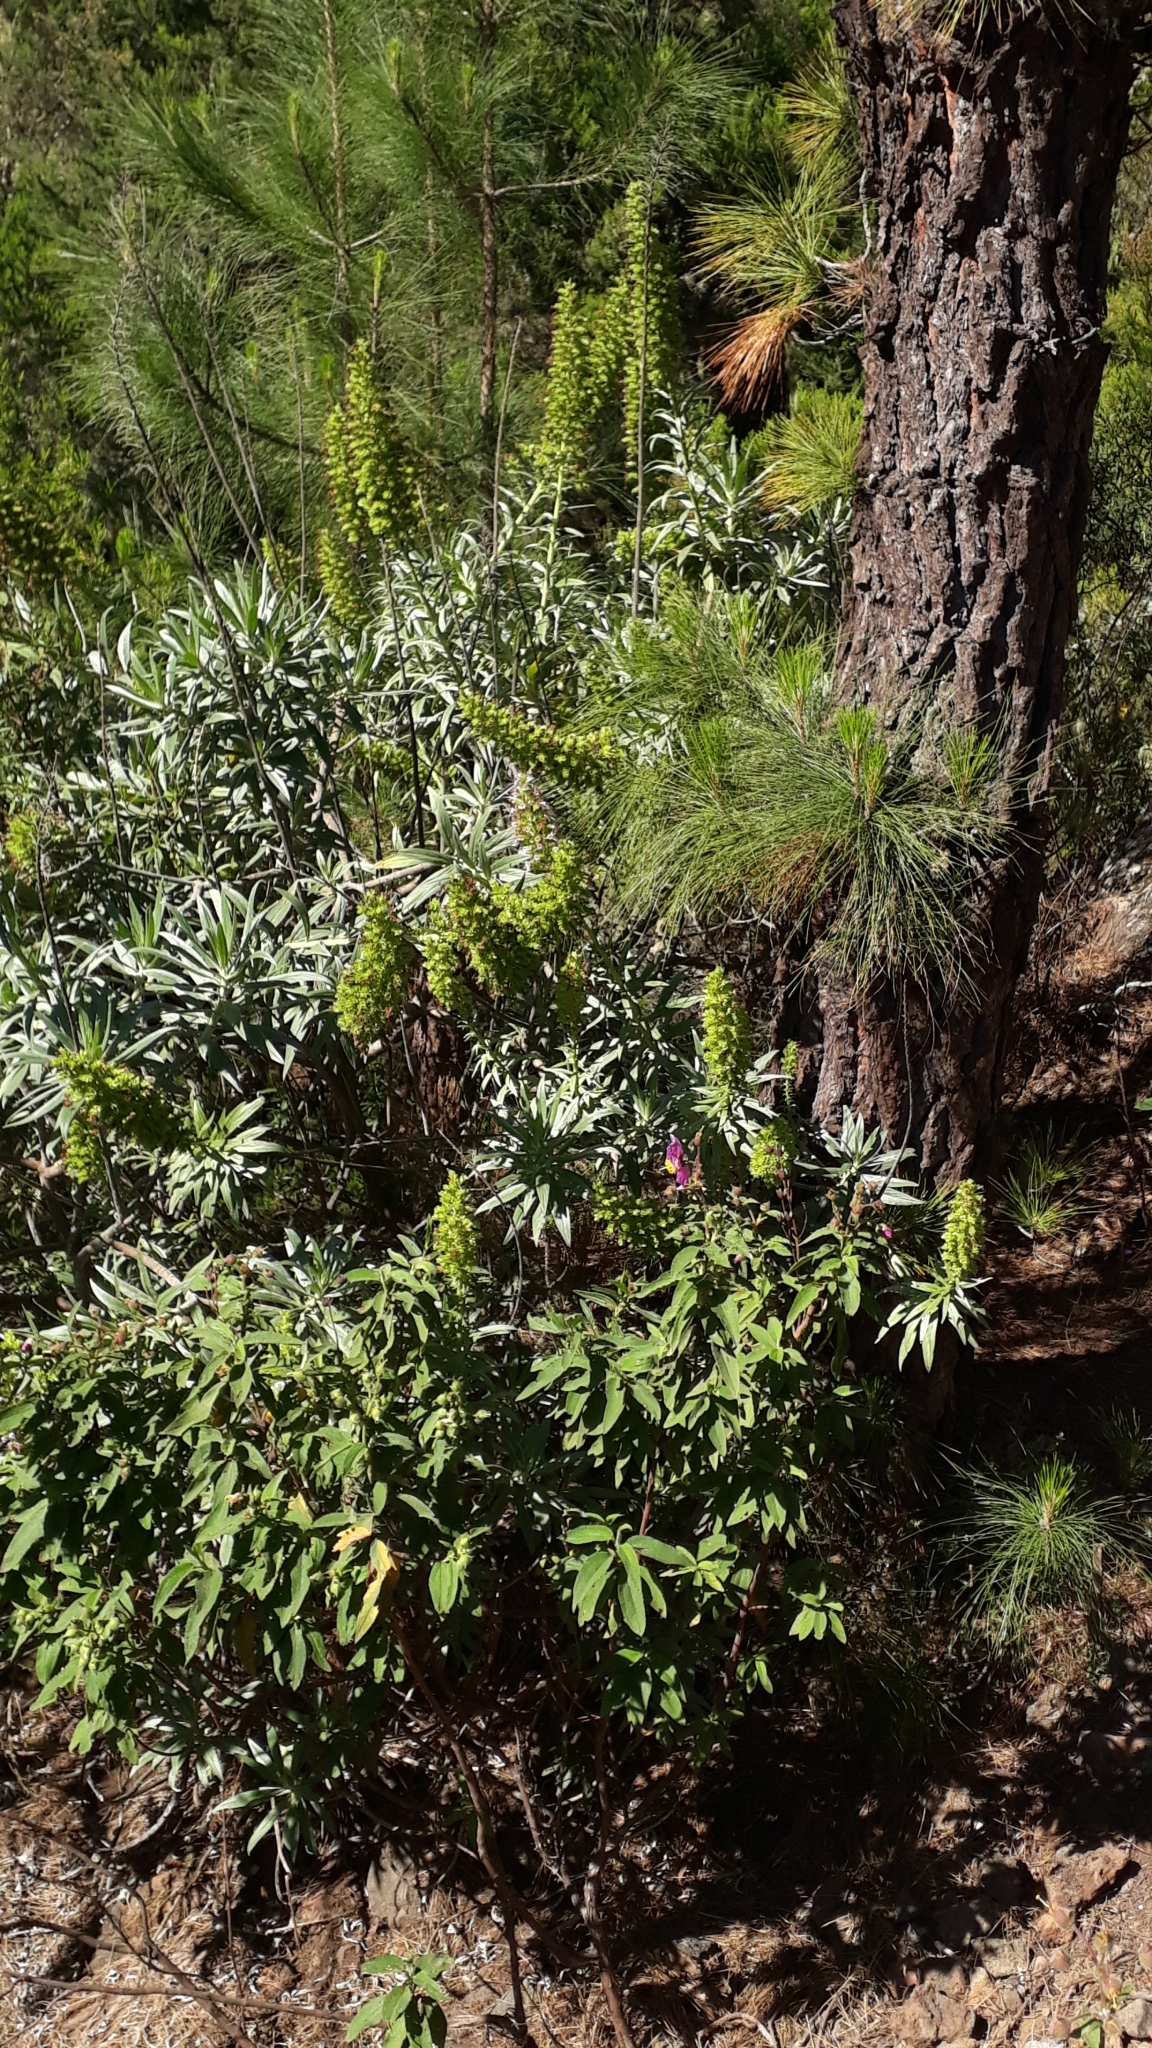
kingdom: Plantae
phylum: Tracheophyta
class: Magnoliopsida
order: Boraginales
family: Boraginaceae
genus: Echium
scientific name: Echium virescens
